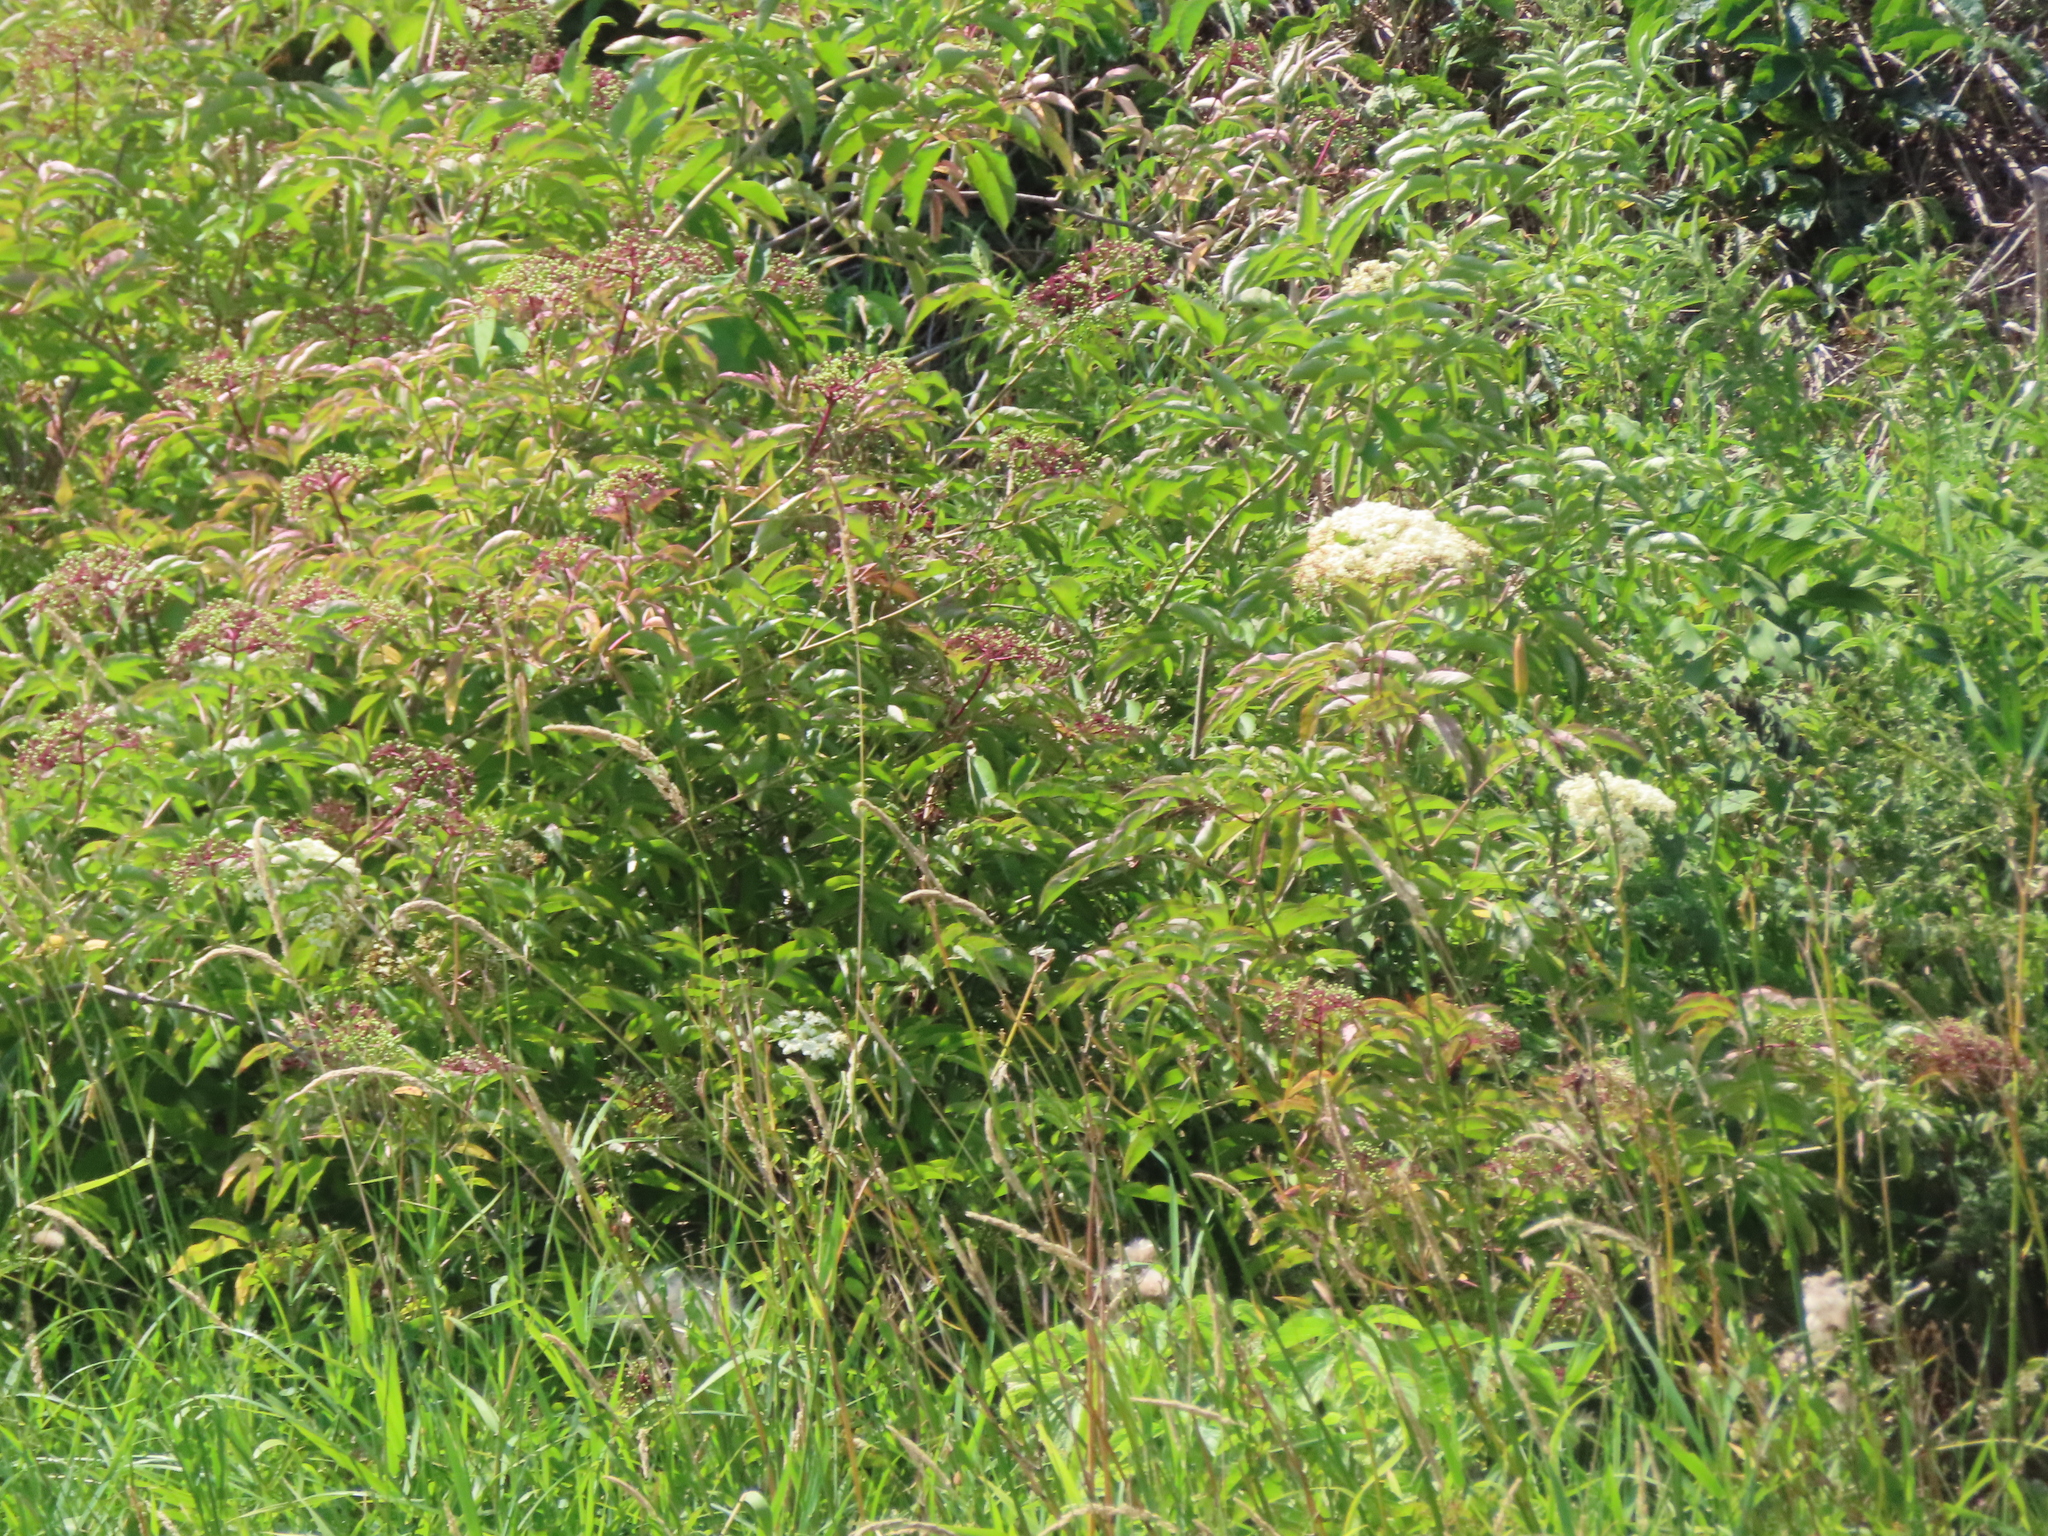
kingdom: Plantae
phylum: Tracheophyta
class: Magnoliopsida
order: Dipsacales
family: Viburnaceae
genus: Sambucus
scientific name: Sambucus canadensis
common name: American elder
